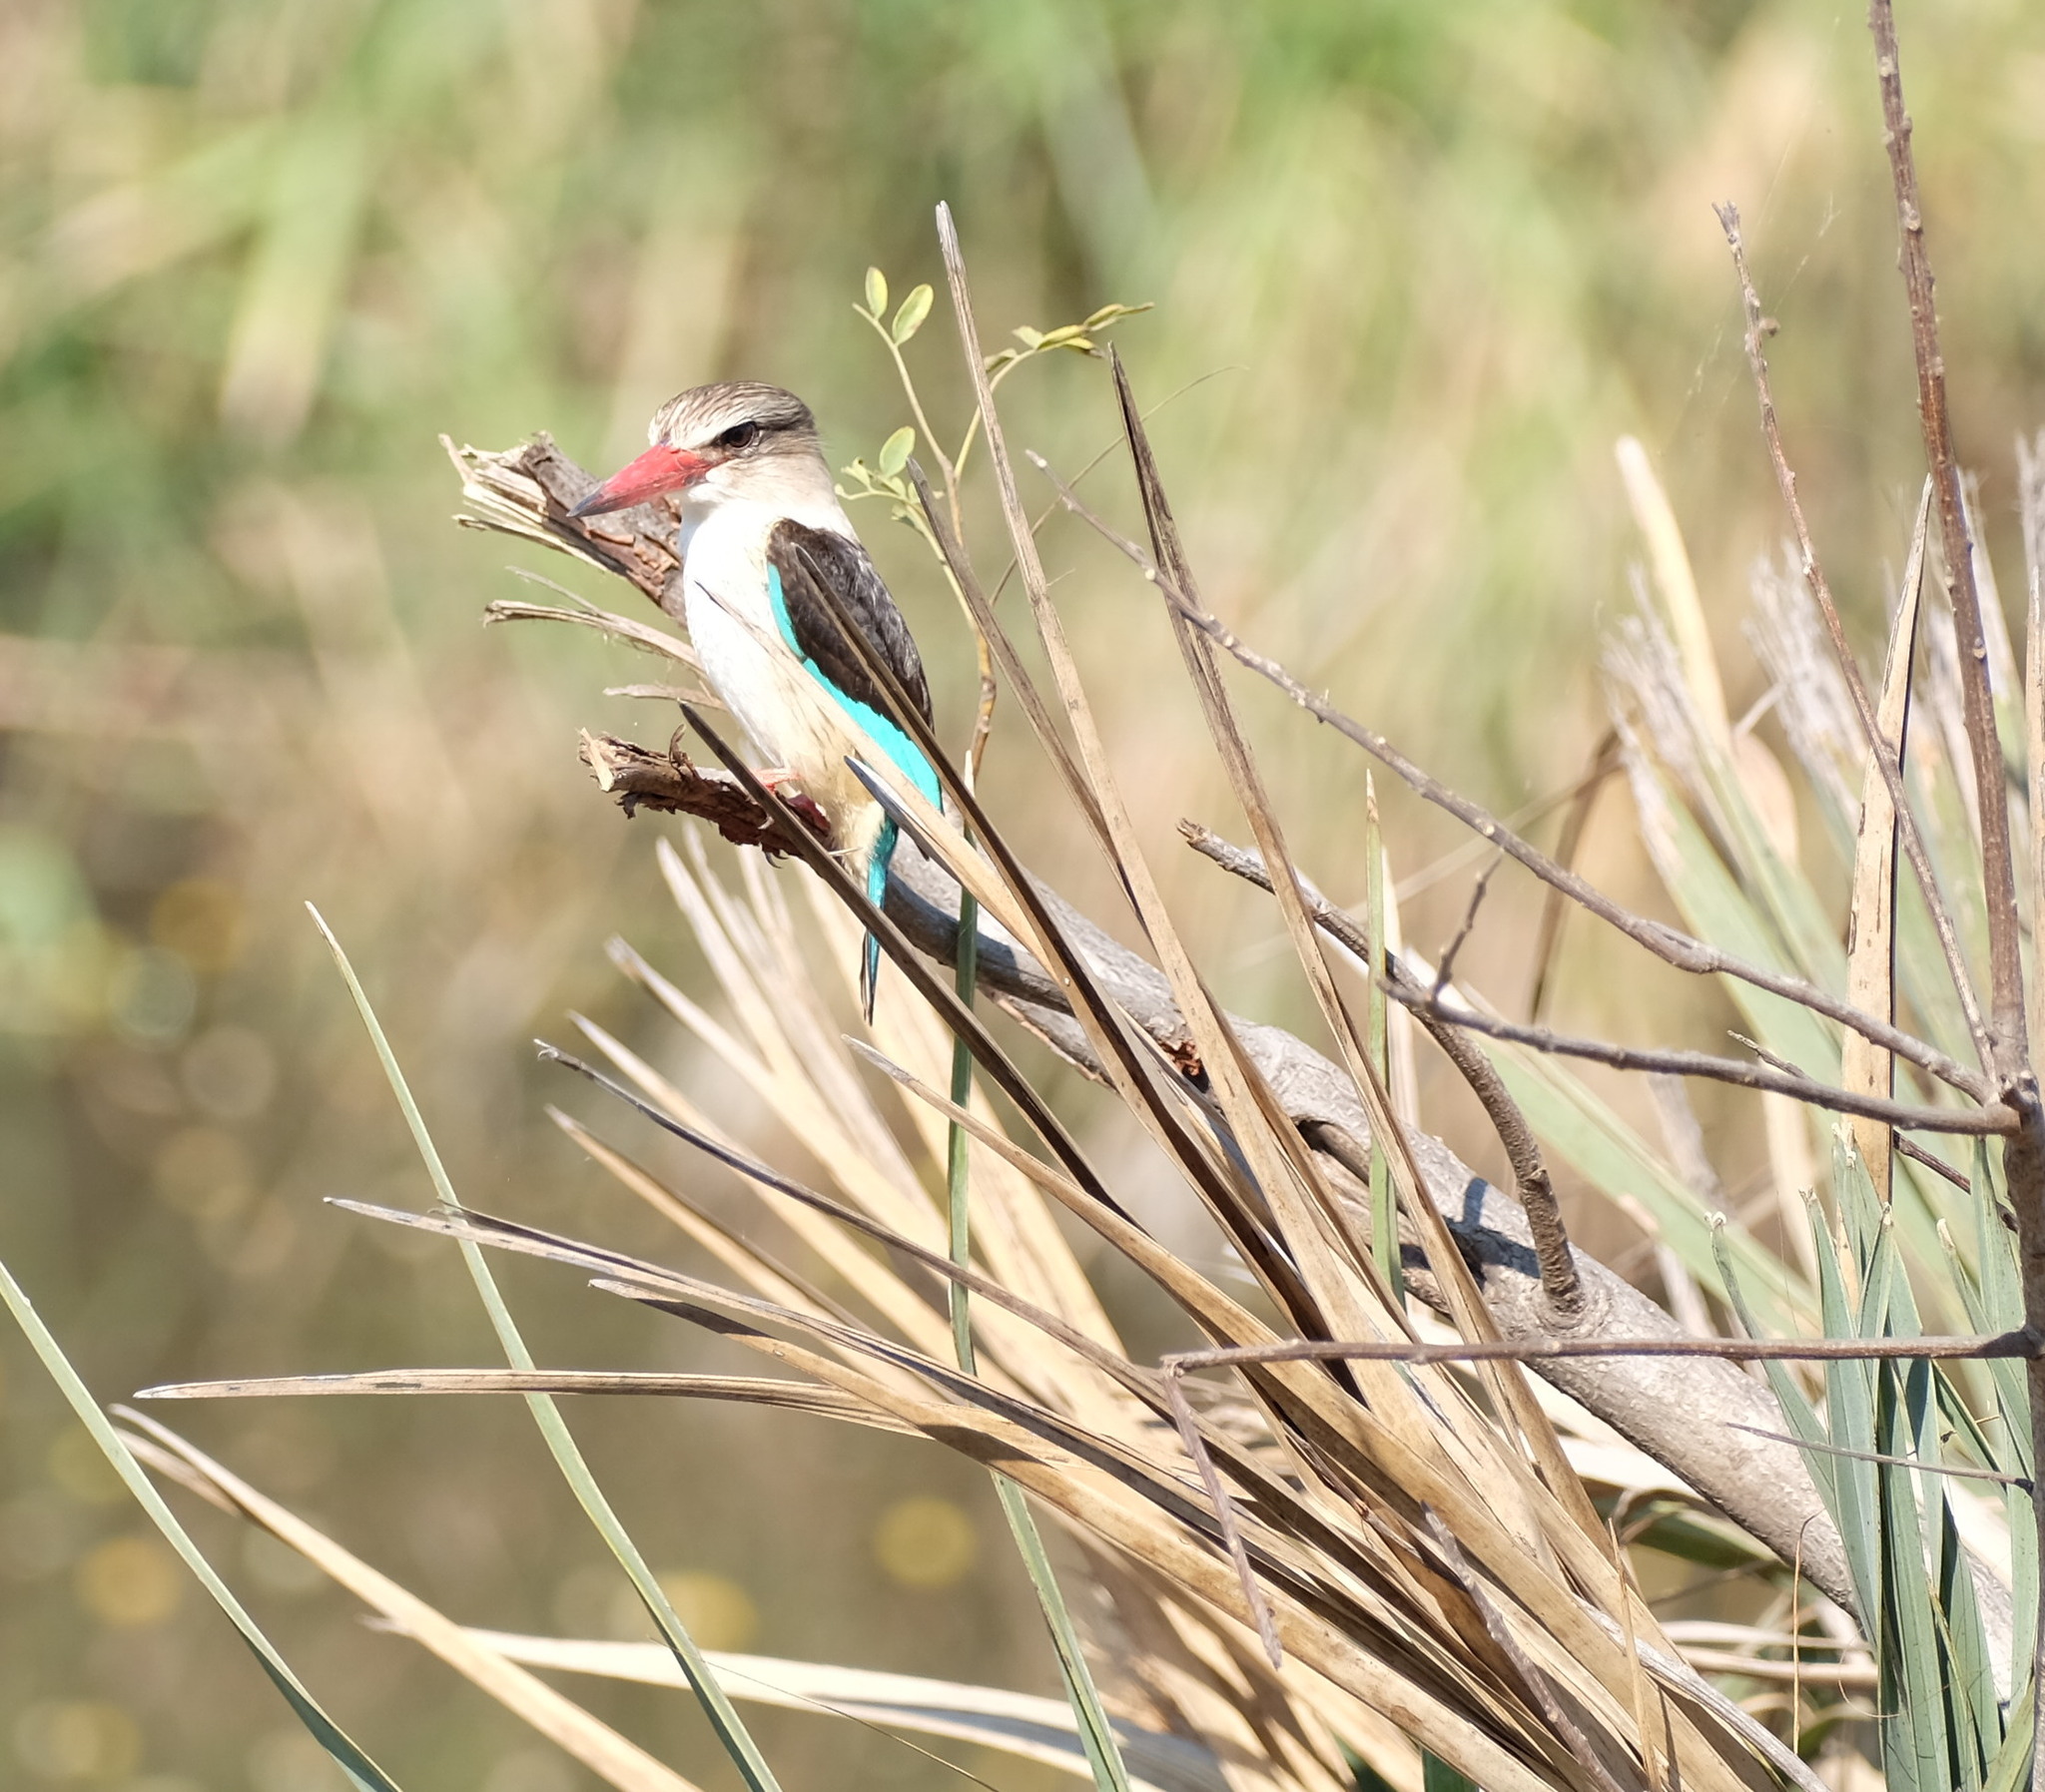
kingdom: Animalia
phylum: Chordata
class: Aves
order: Coraciiformes
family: Alcedinidae
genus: Halcyon
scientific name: Halcyon albiventris
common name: Brown-hooded kingfisher
